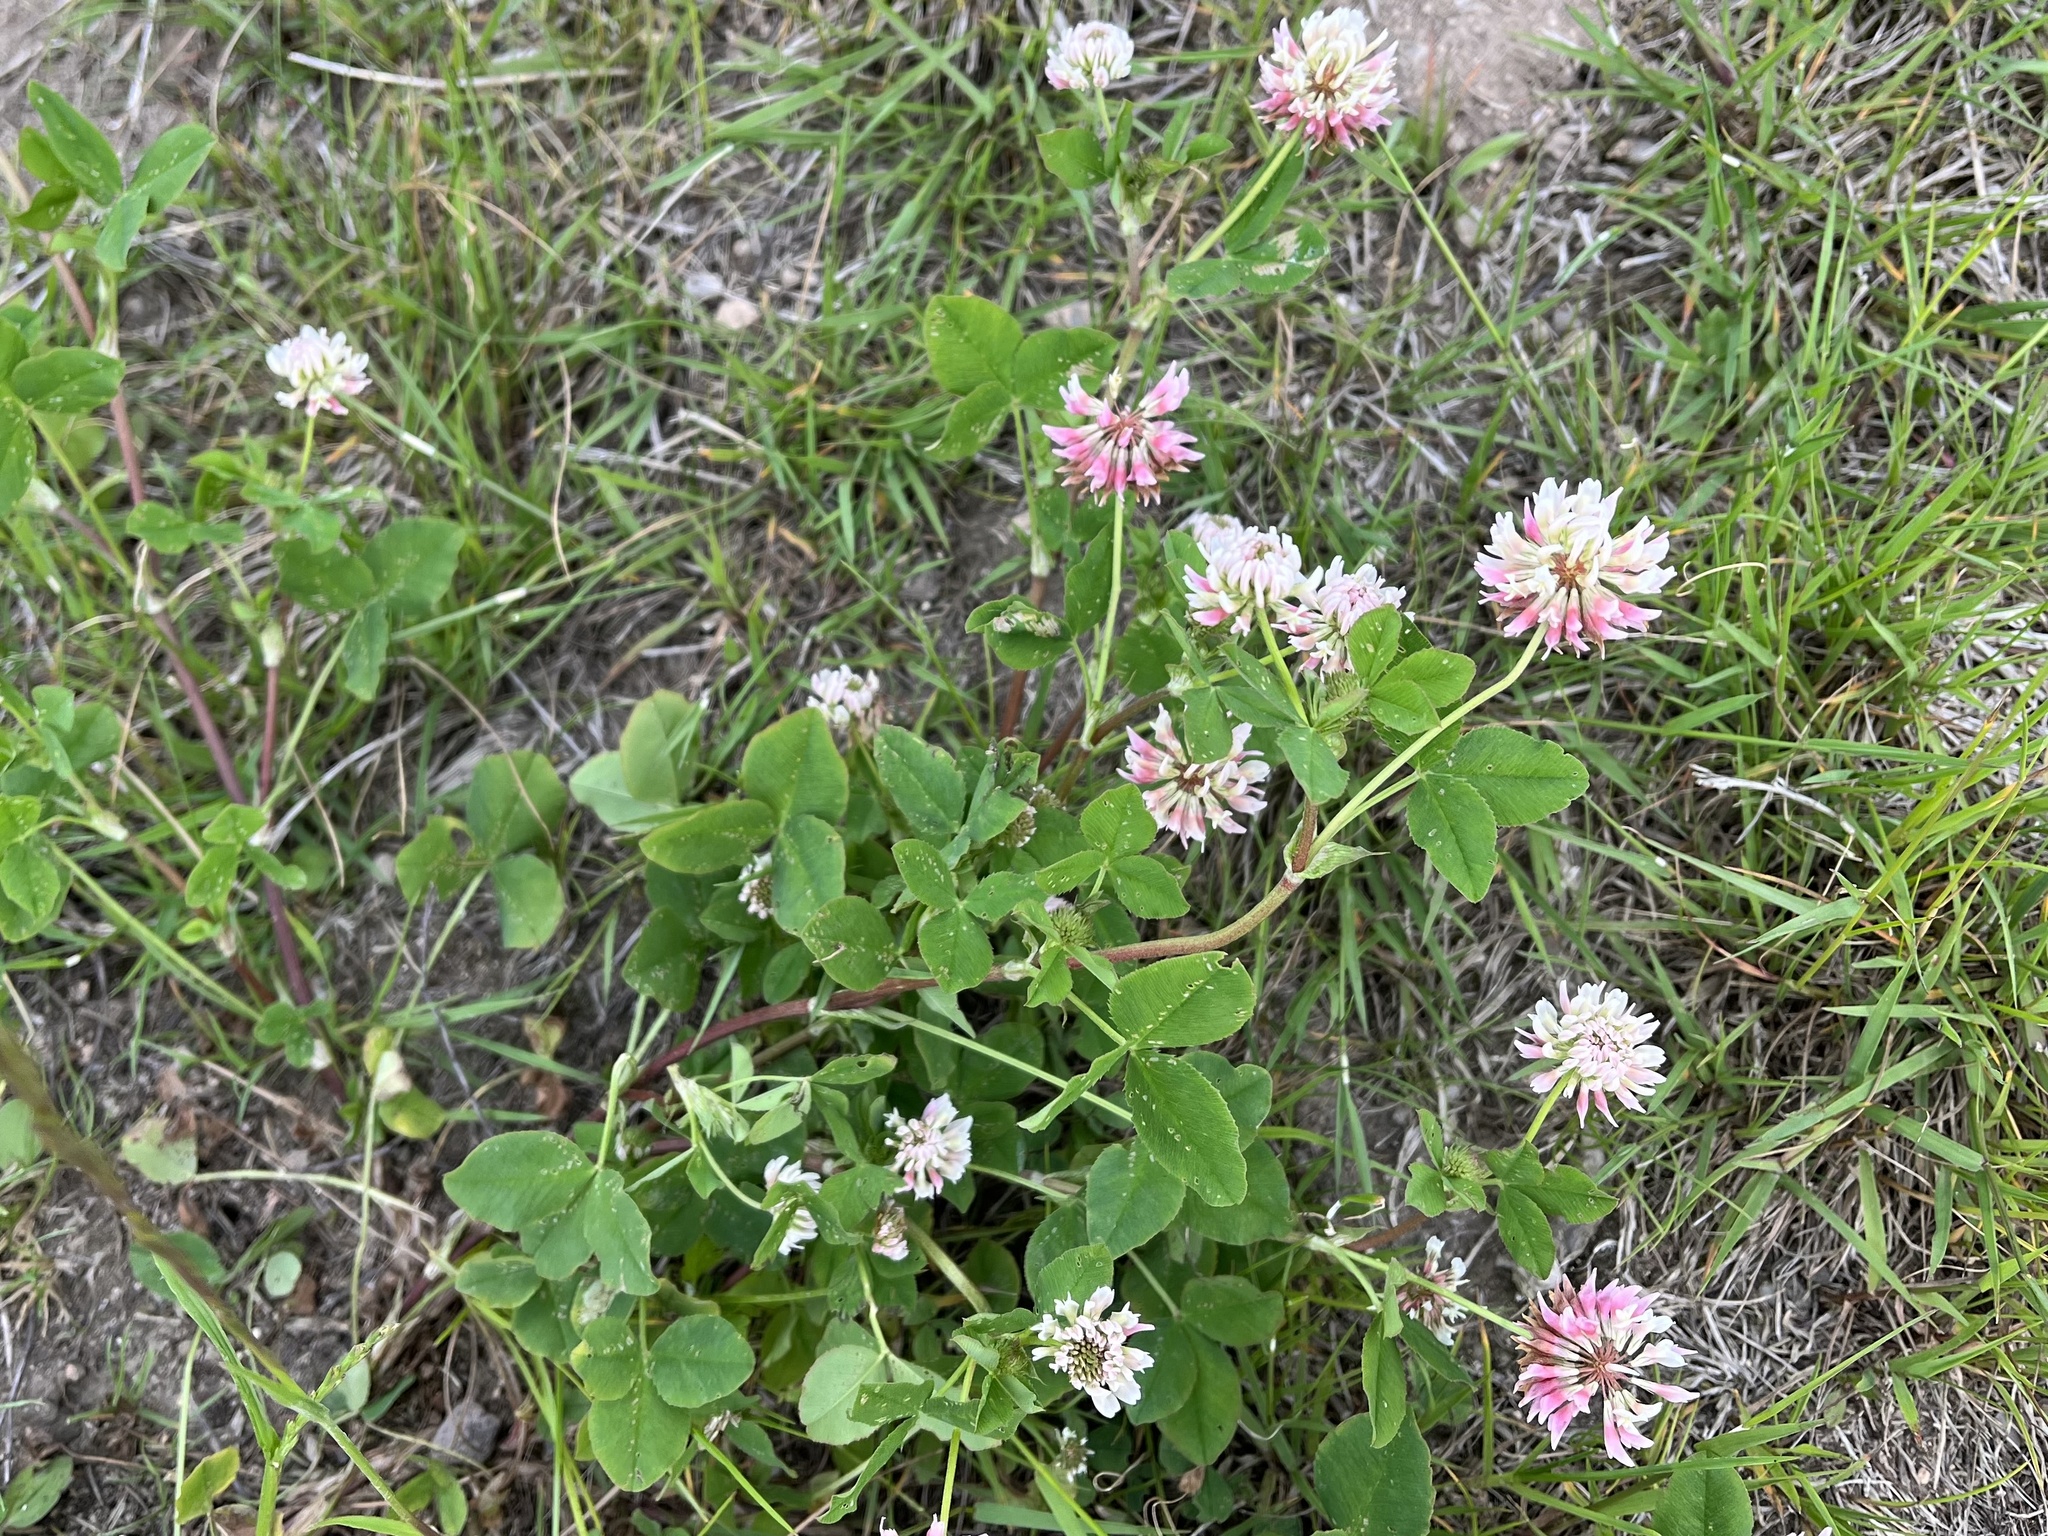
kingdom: Plantae
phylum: Tracheophyta
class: Magnoliopsida
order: Fabales
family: Fabaceae
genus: Trifolium
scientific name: Trifolium hybridum
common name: Alsike clover
